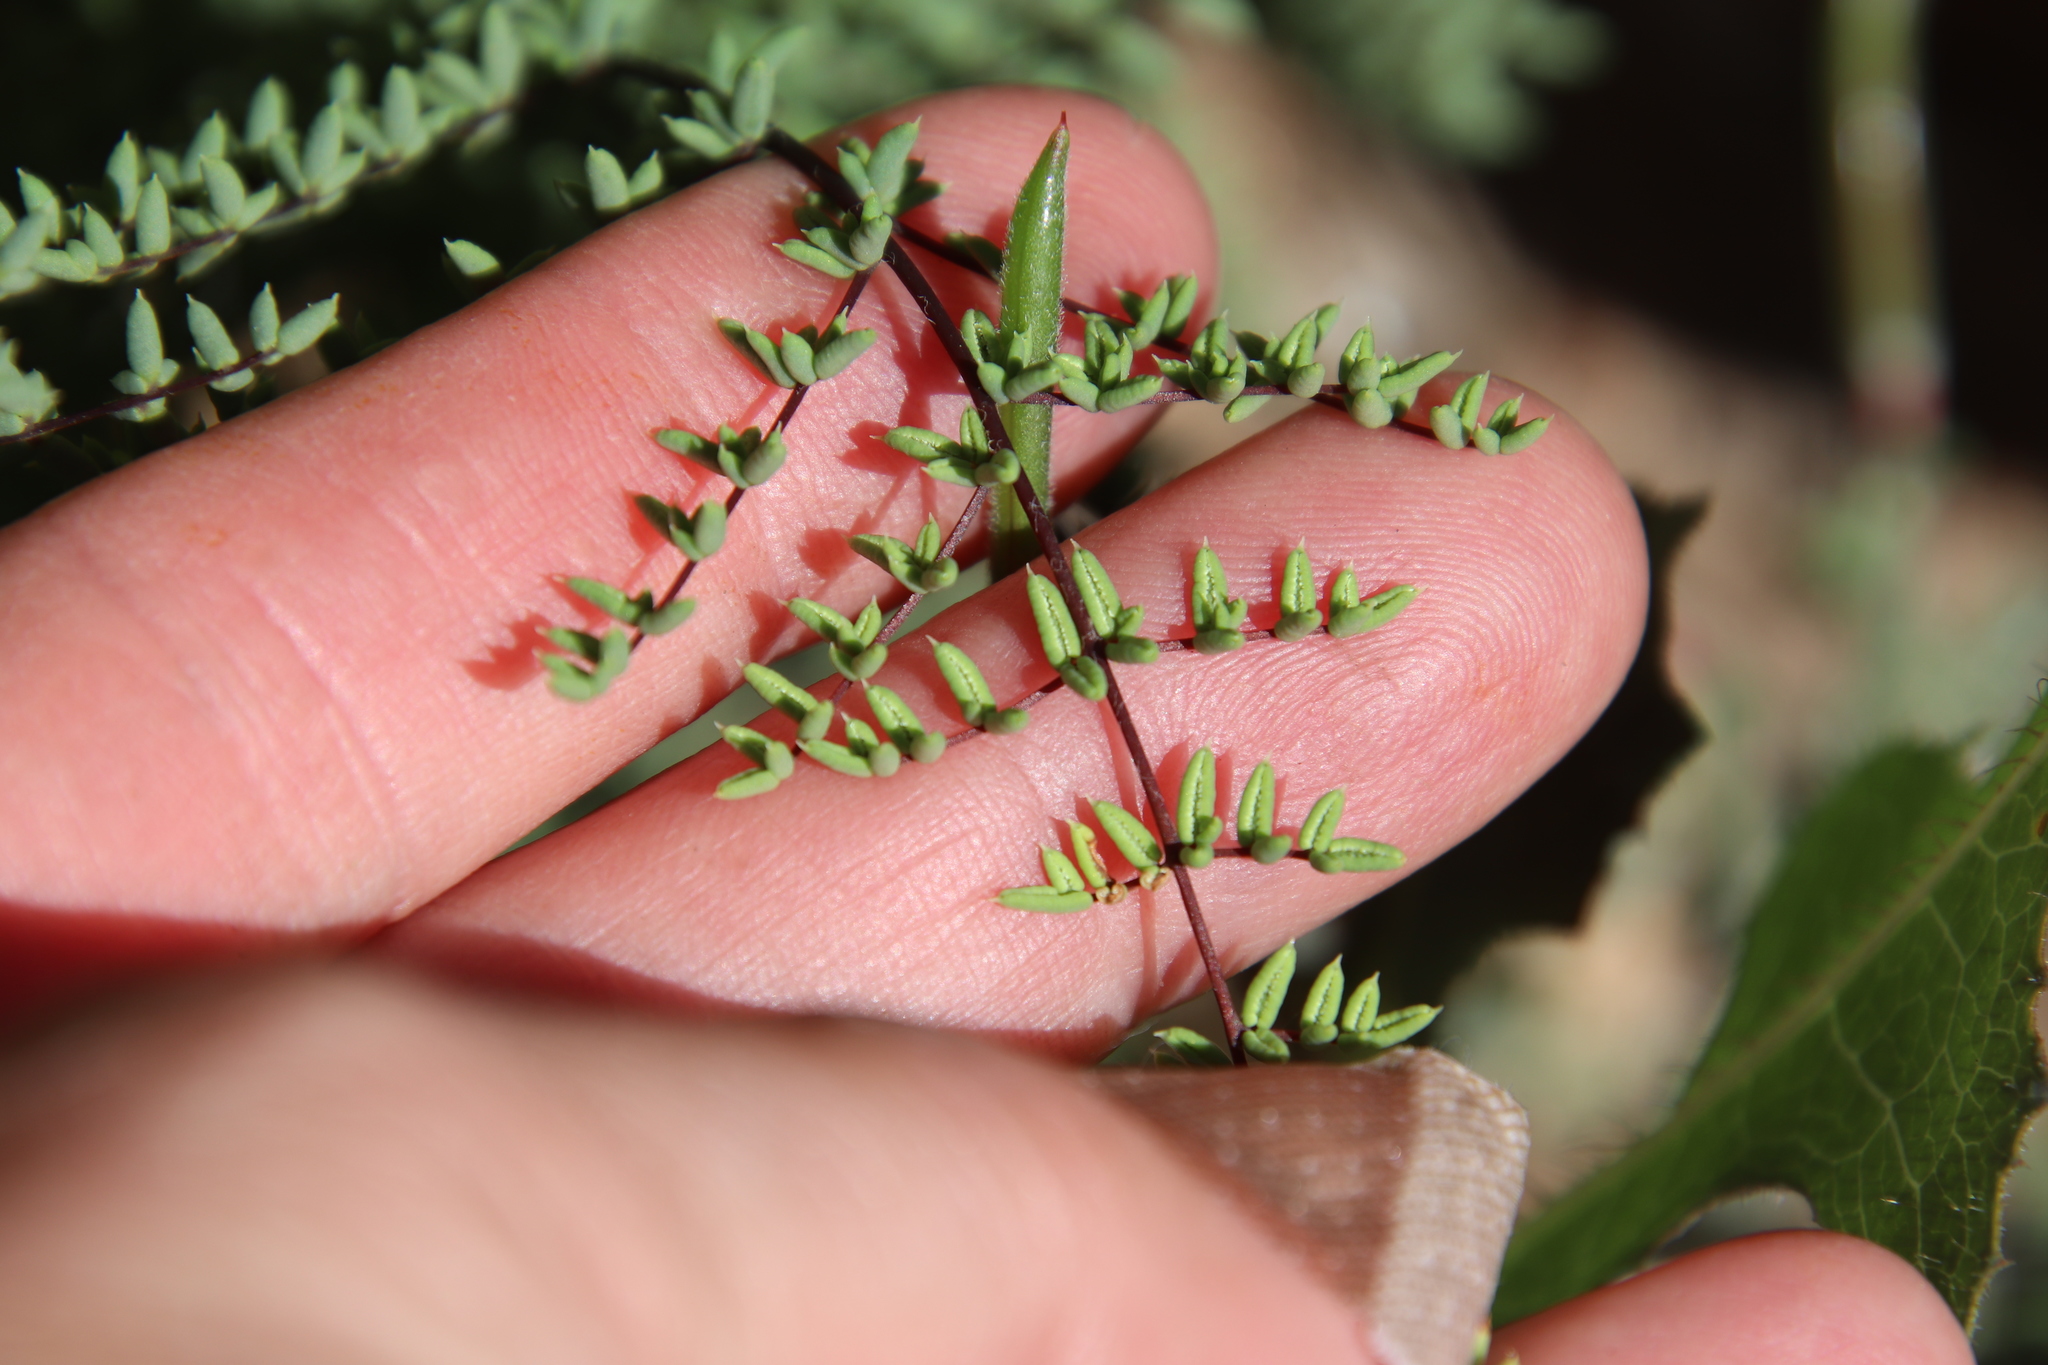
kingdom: Plantae
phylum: Tracheophyta
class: Polypodiopsida
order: Polypodiales
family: Pteridaceae
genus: Pellaea
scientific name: Pellaea mucronata
